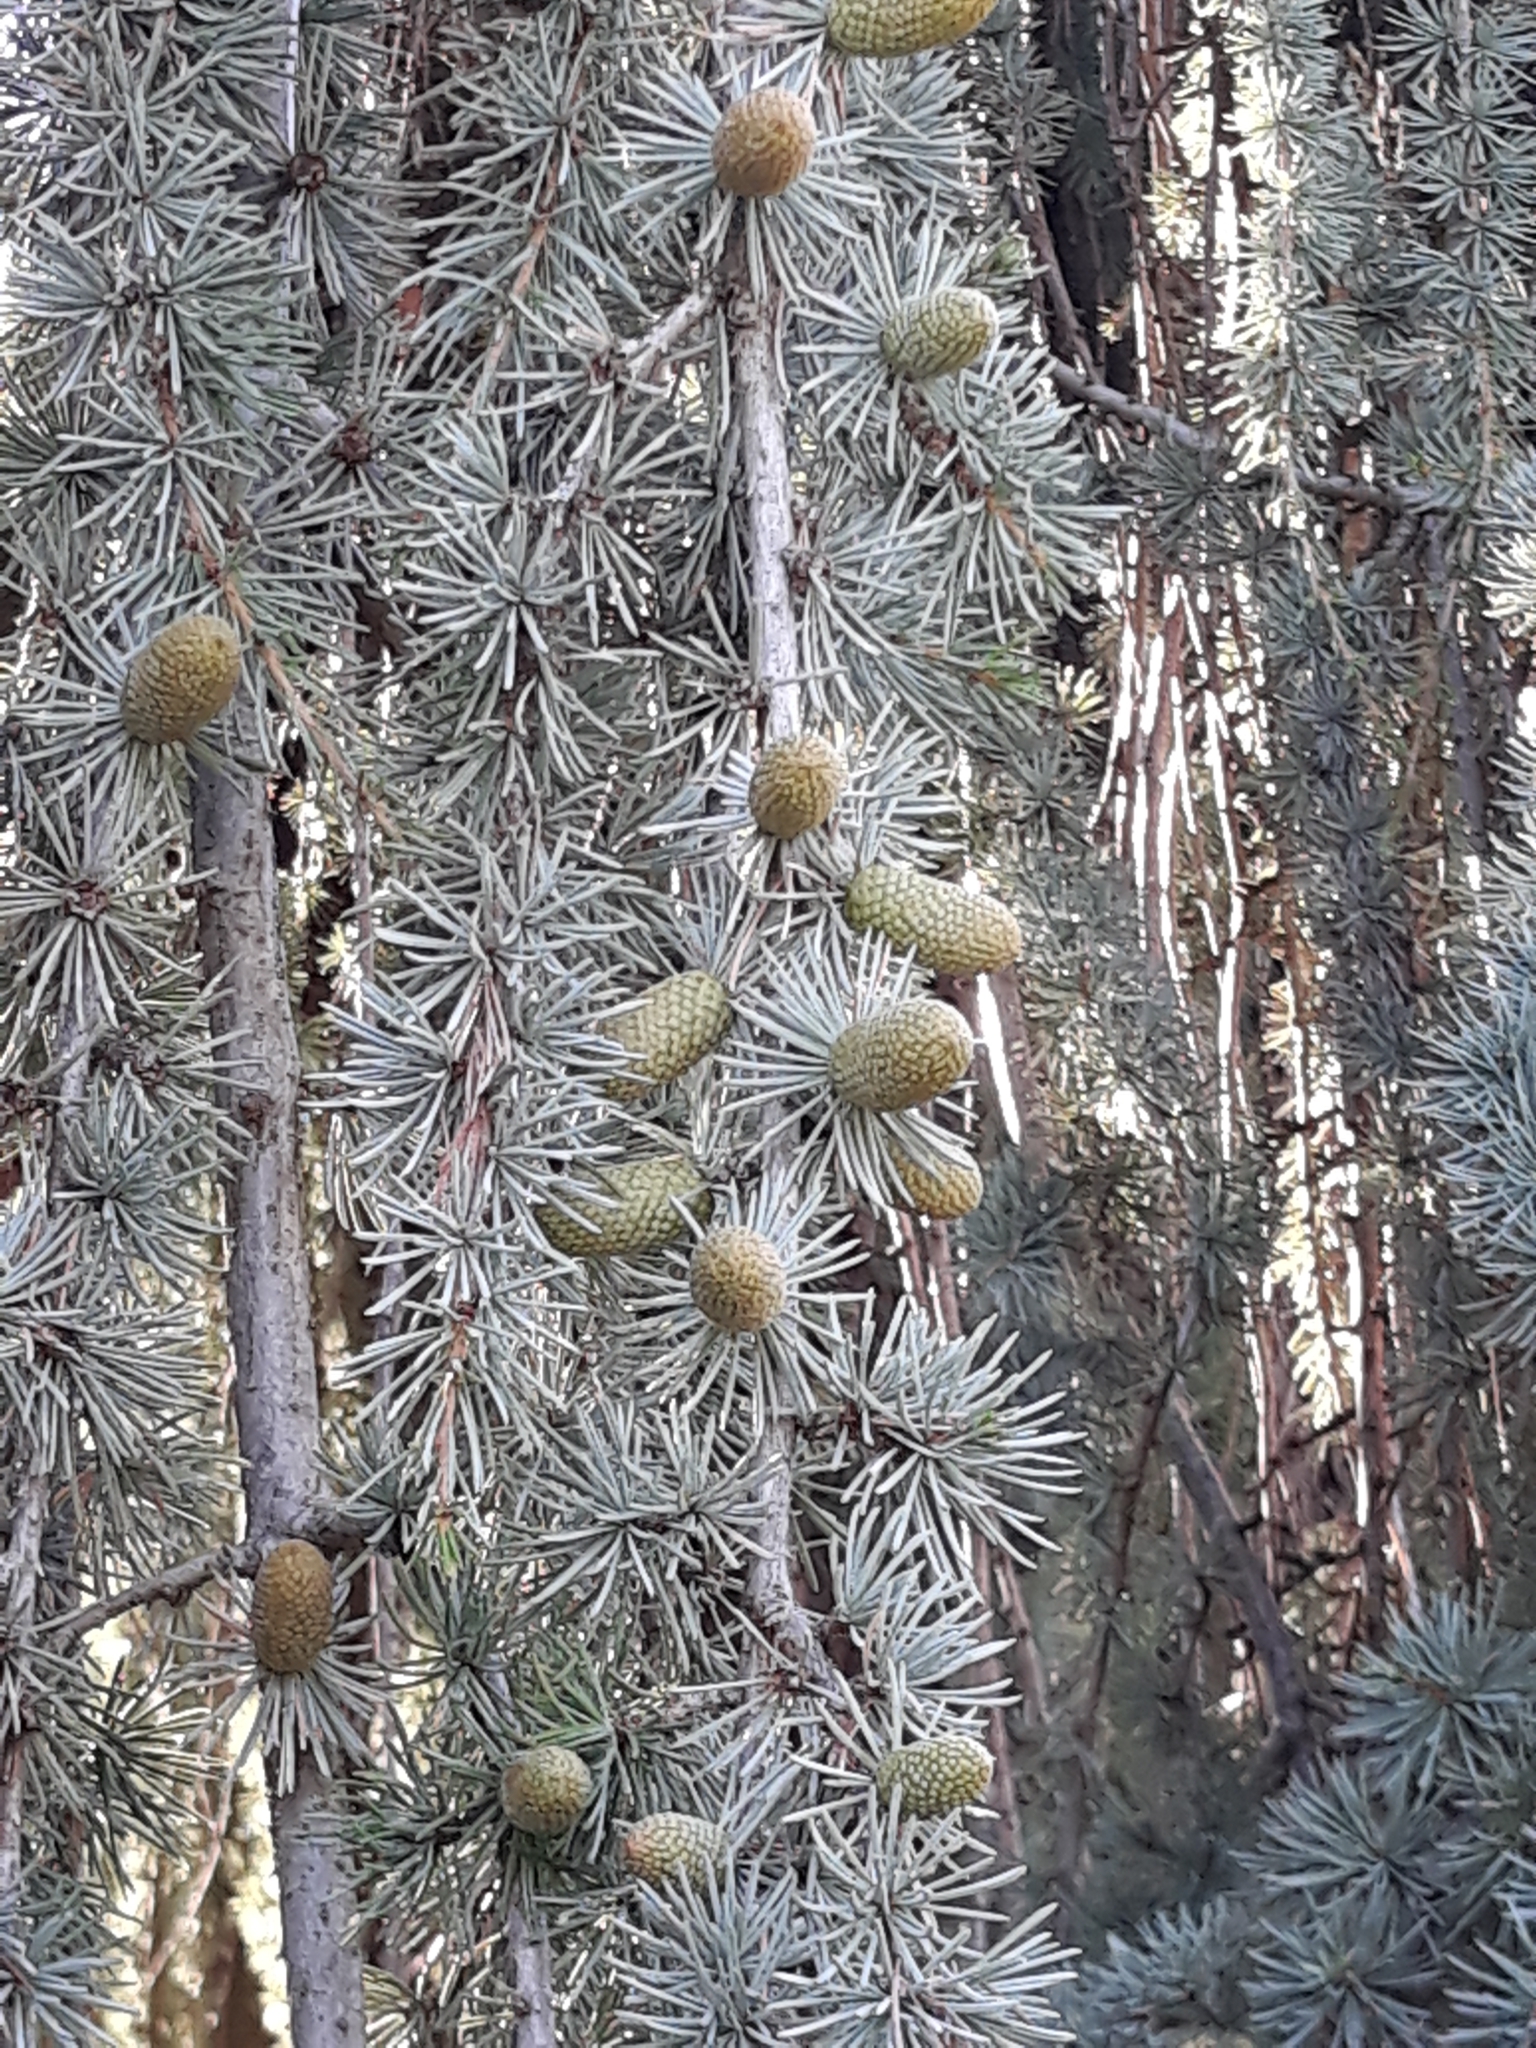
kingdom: Plantae
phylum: Tracheophyta
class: Pinopsida
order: Pinales
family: Pinaceae
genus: Cedrus
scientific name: Cedrus atlantica
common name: Atlas cedar
